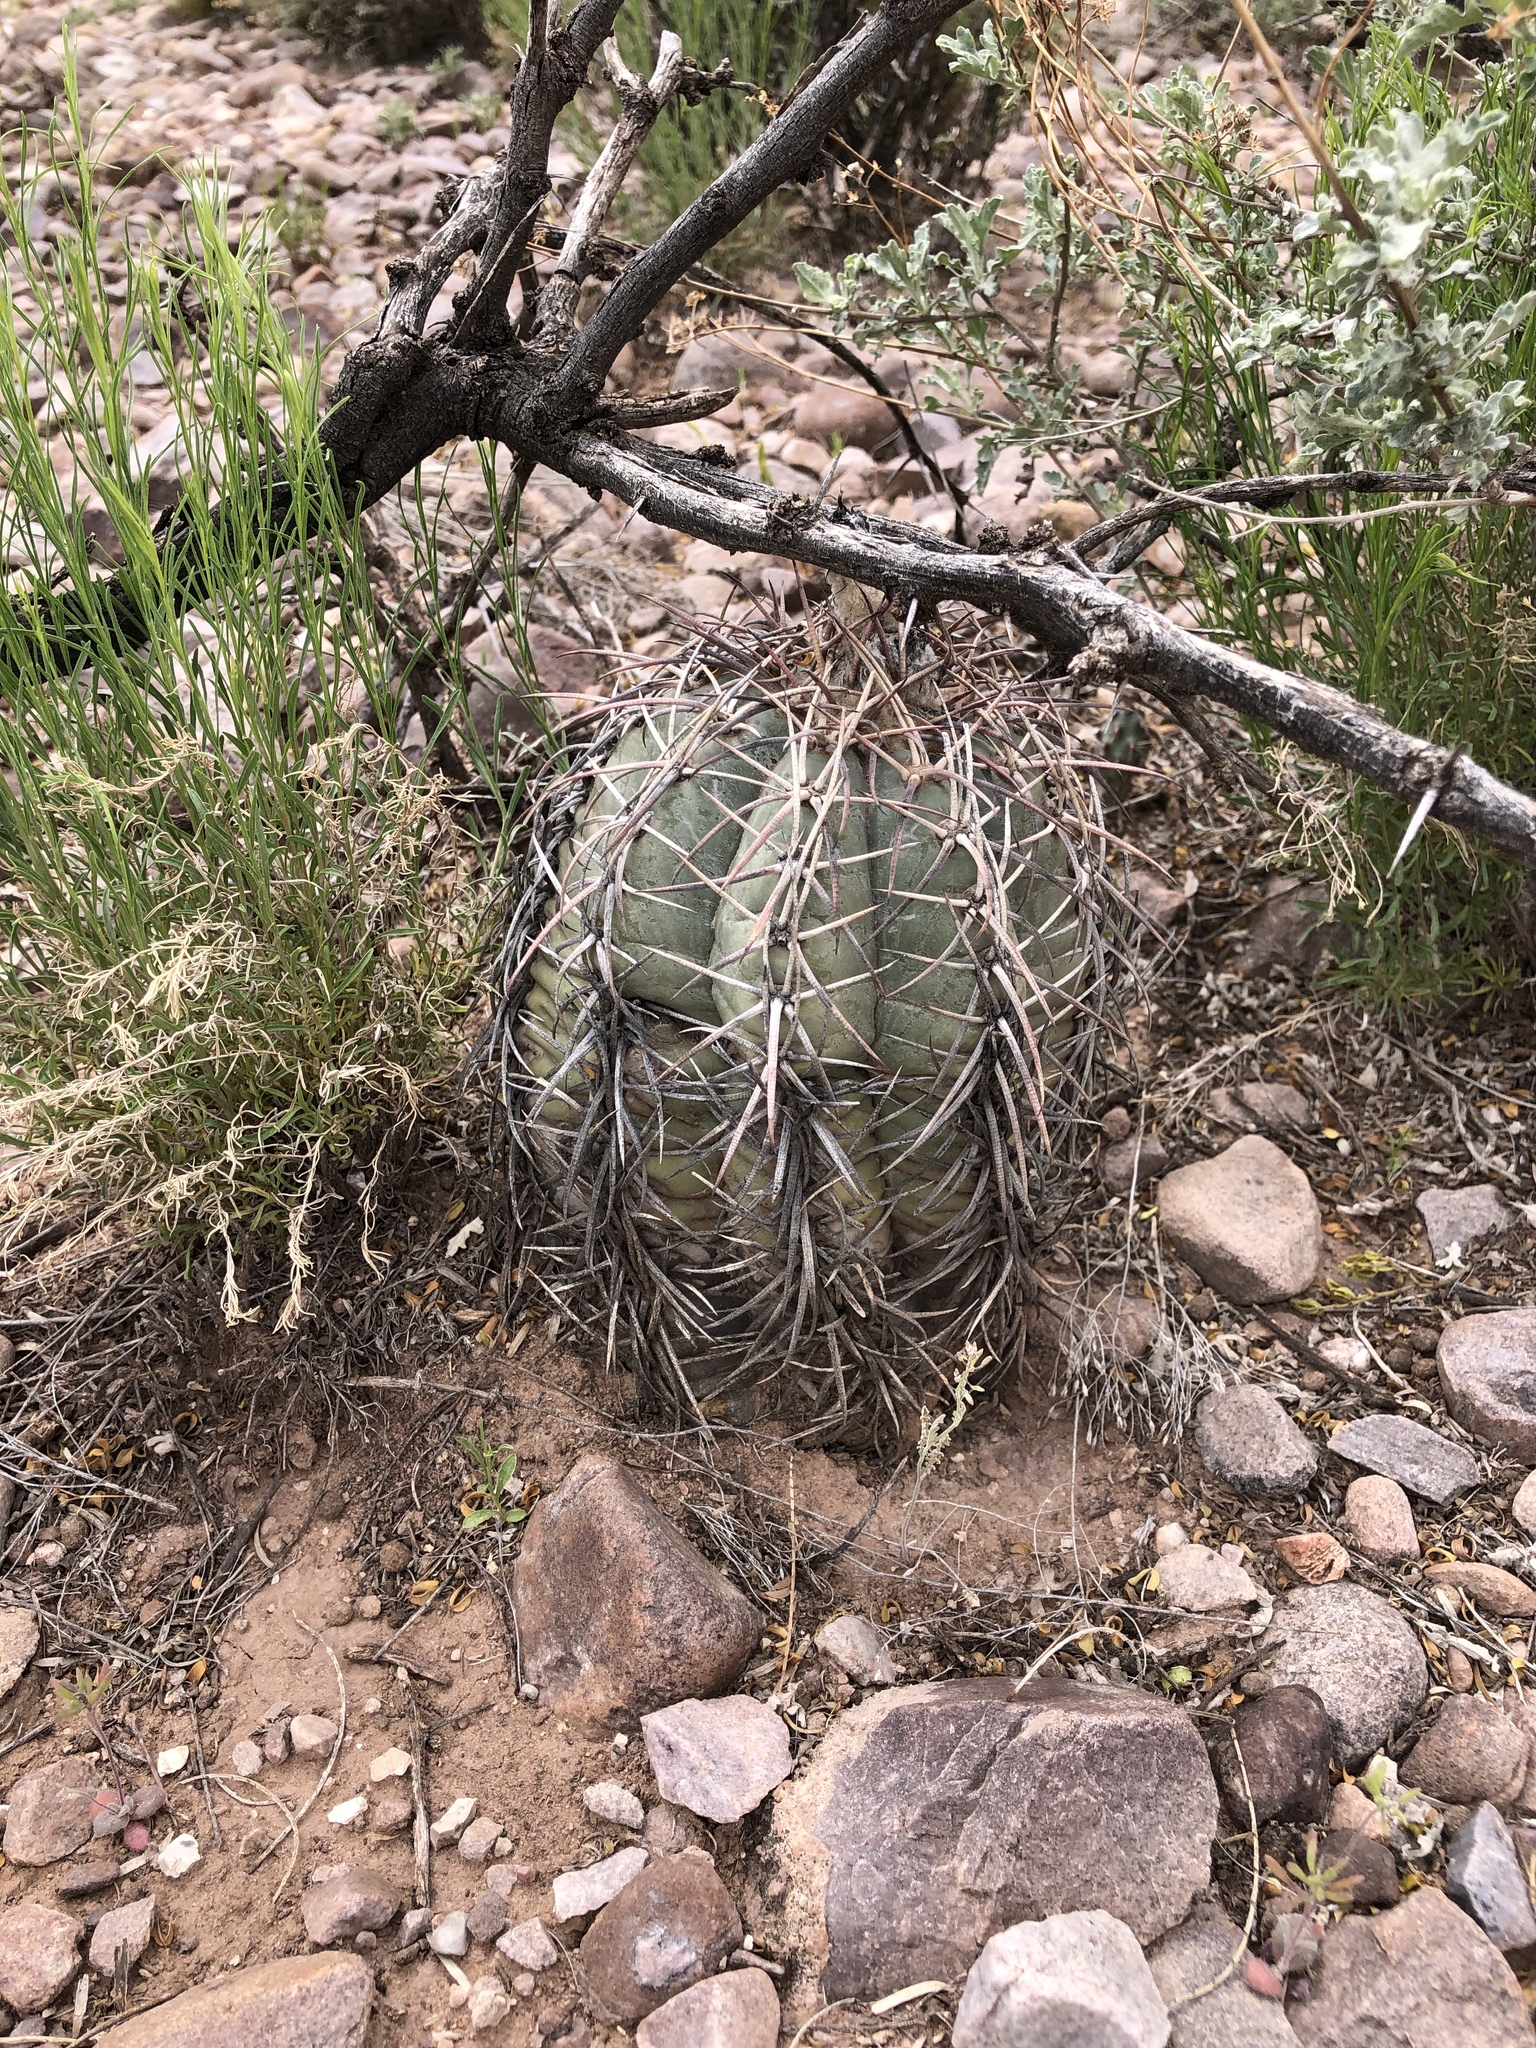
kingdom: Plantae
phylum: Tracheophyta
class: Magnoliopsida
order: Caryophyllales
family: Cactaceae
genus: Echinocactus
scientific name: Echinocactus horizonthalonius
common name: Devilshead
